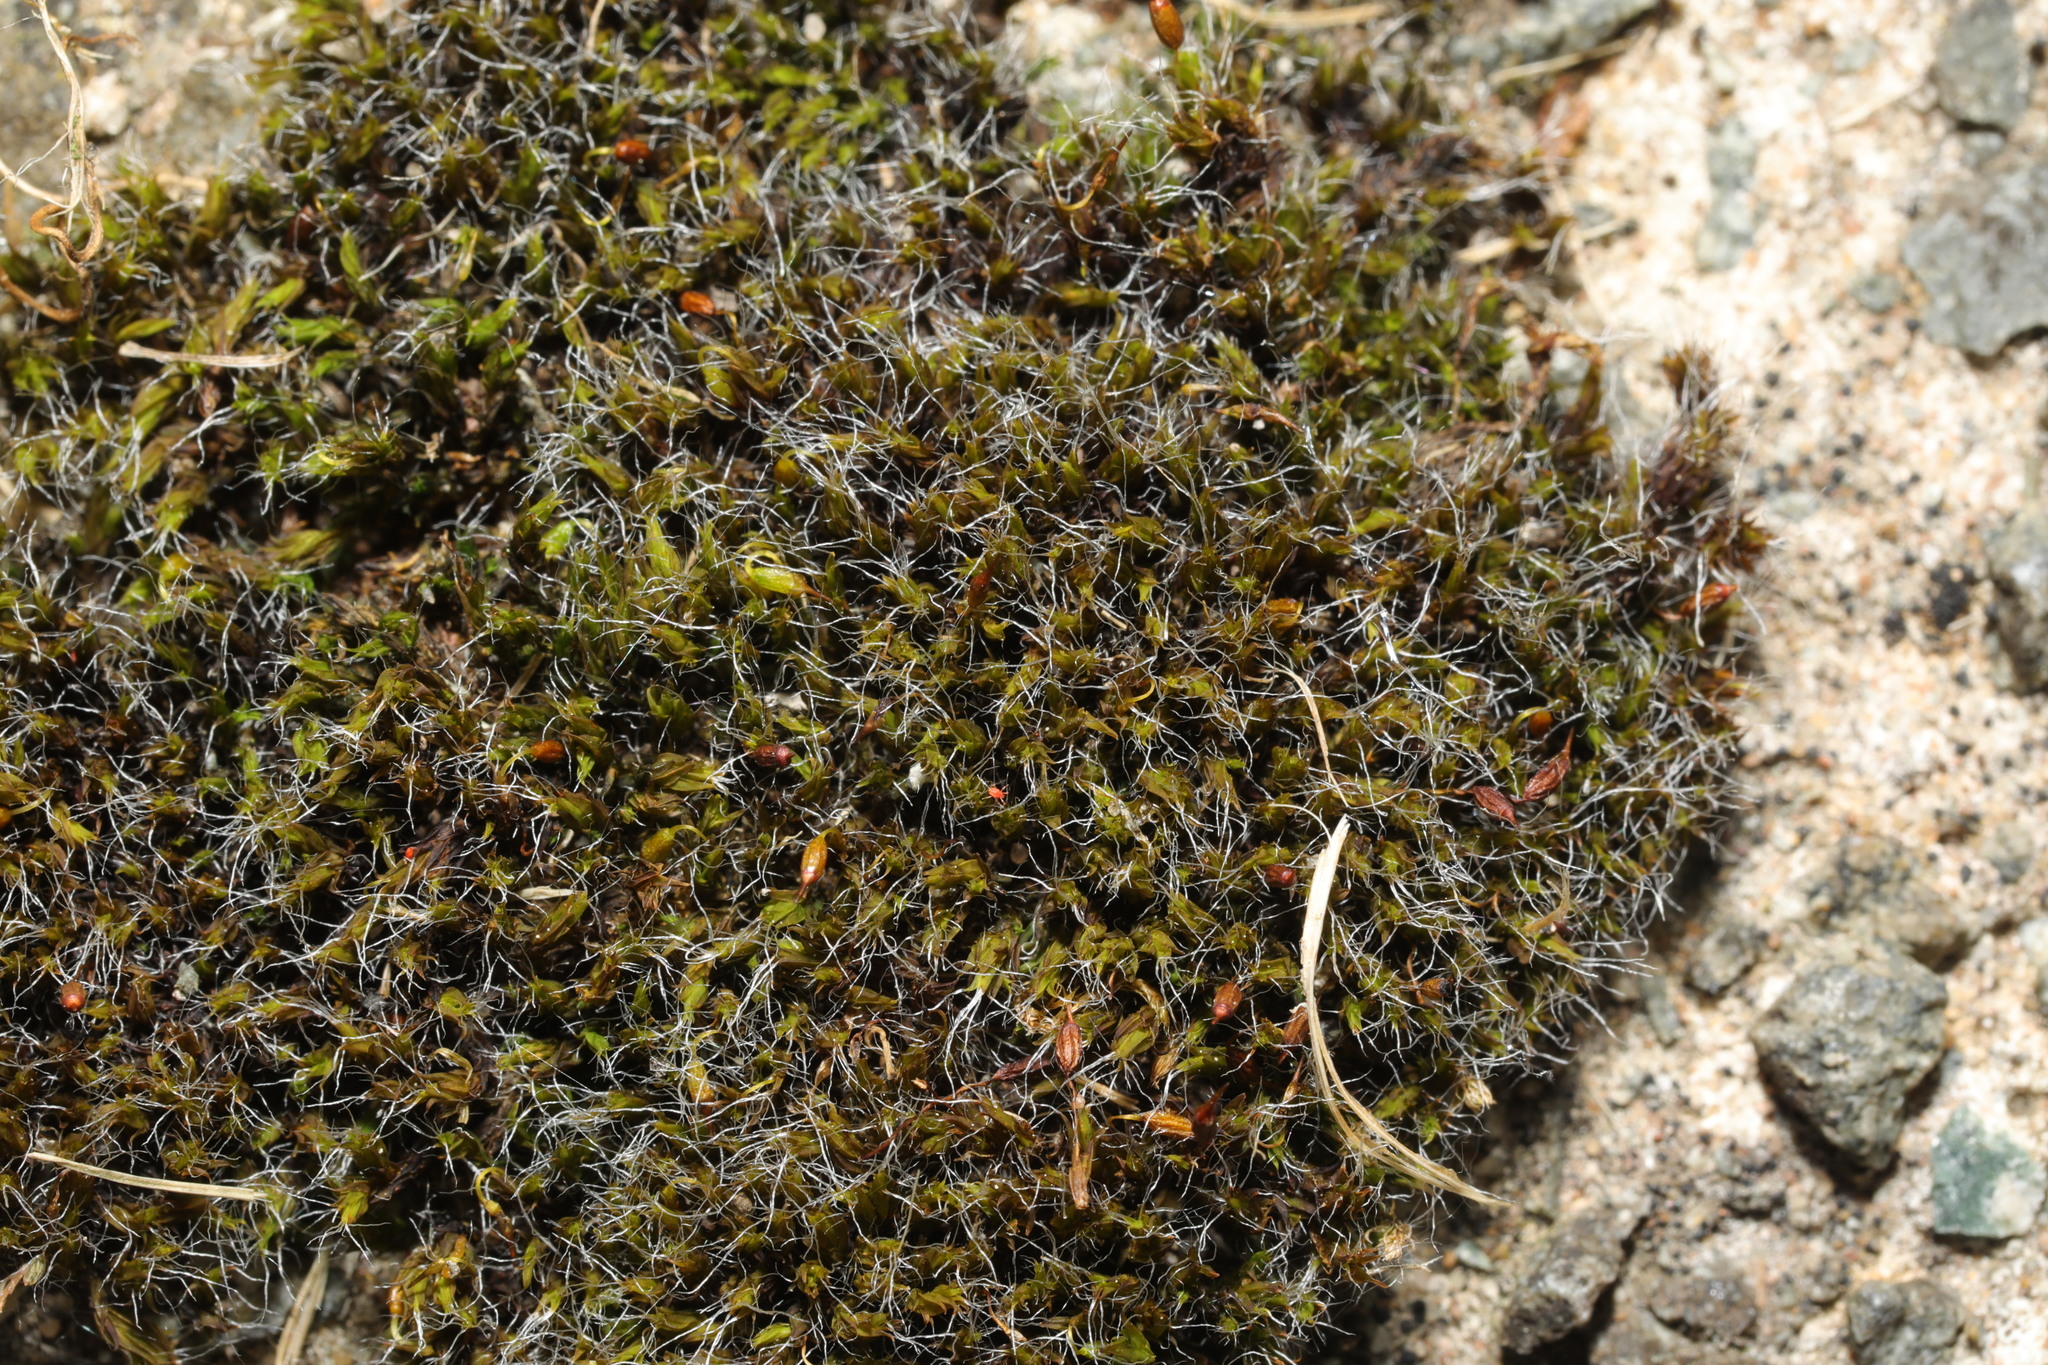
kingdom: Plantae
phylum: Bryophyta
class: Bryopsida
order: Grimmiales
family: Grimmiaceae
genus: Grimmia
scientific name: Grimmia pulvinata
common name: Grey-cushioned grimmia
